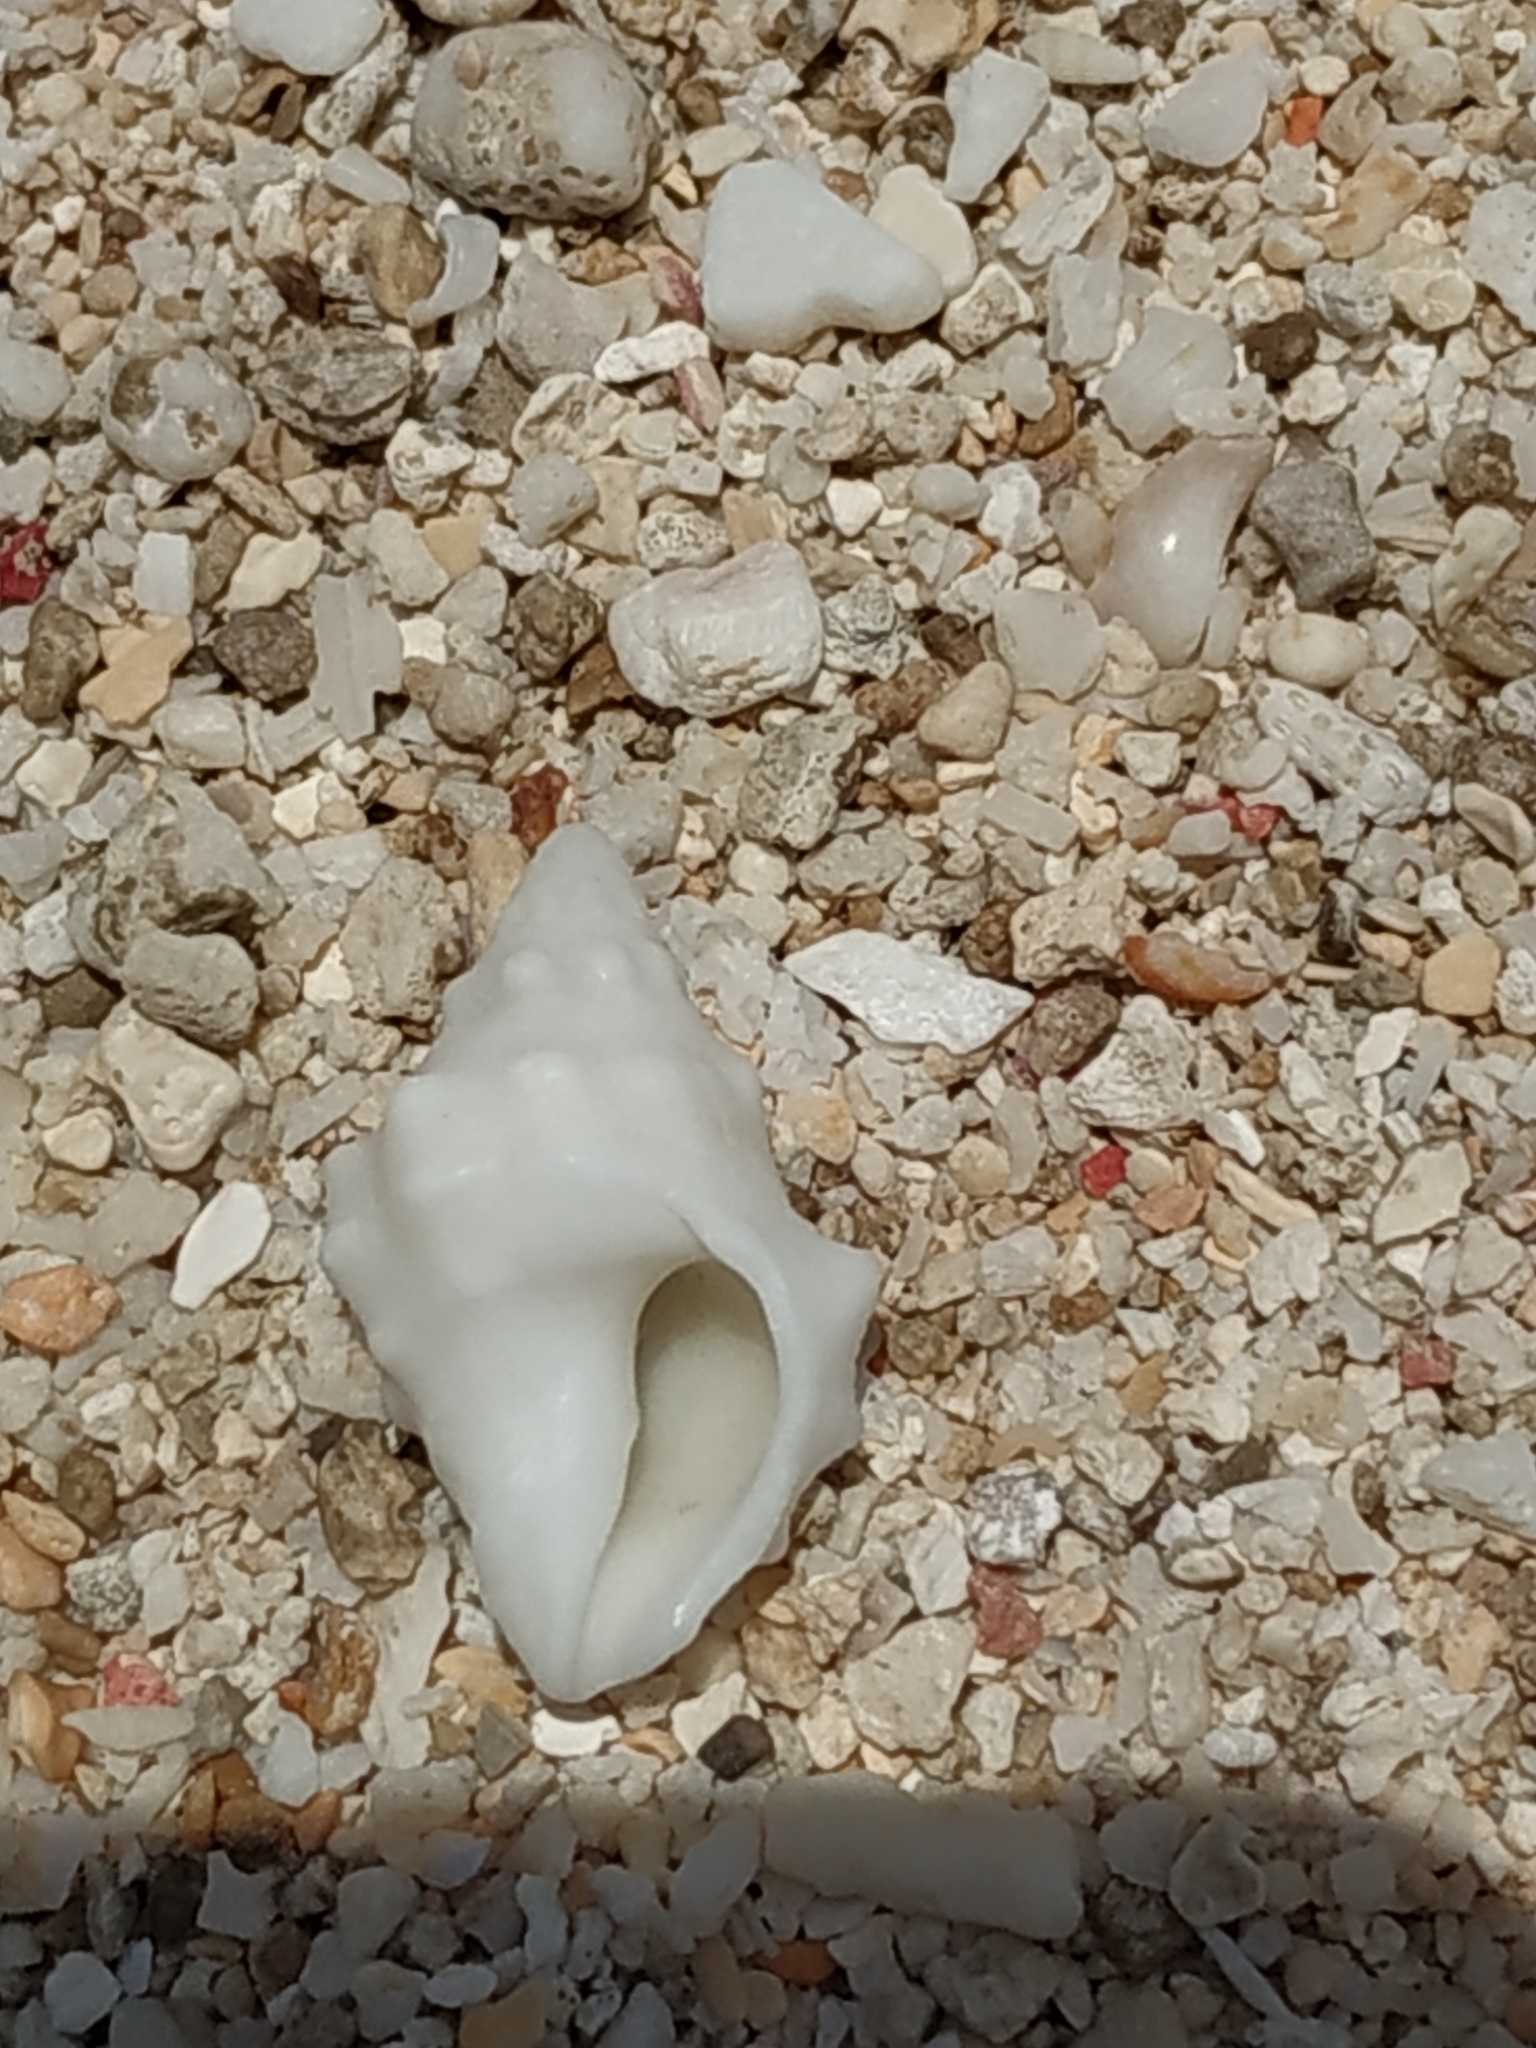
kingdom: Animalia
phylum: Mollusca
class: Gastropoda
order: Neogastropoda
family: Muricidae
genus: Drupella
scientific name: Drupella cornus
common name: Horn drupe
